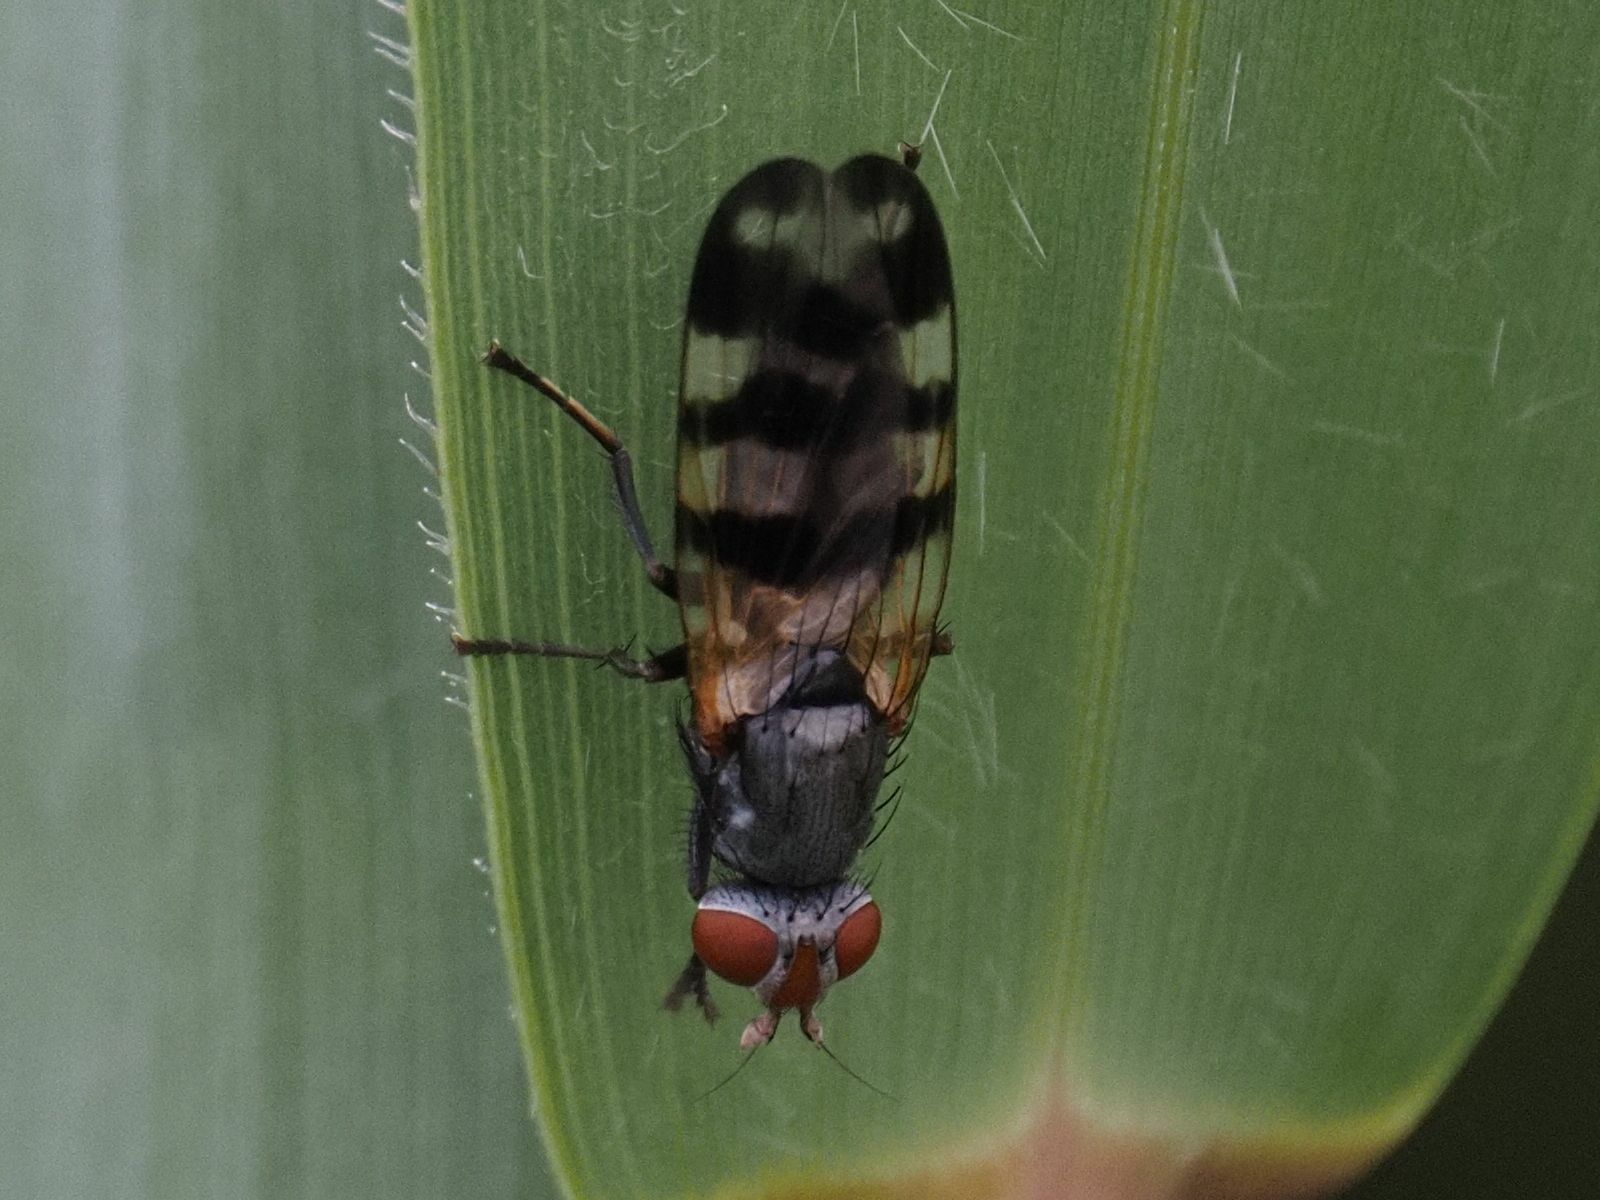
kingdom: Animalia
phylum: Arthropoda
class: Insecta
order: Diptera
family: Ulidiidae
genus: Ceroxys
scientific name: Ceroxys urticae
